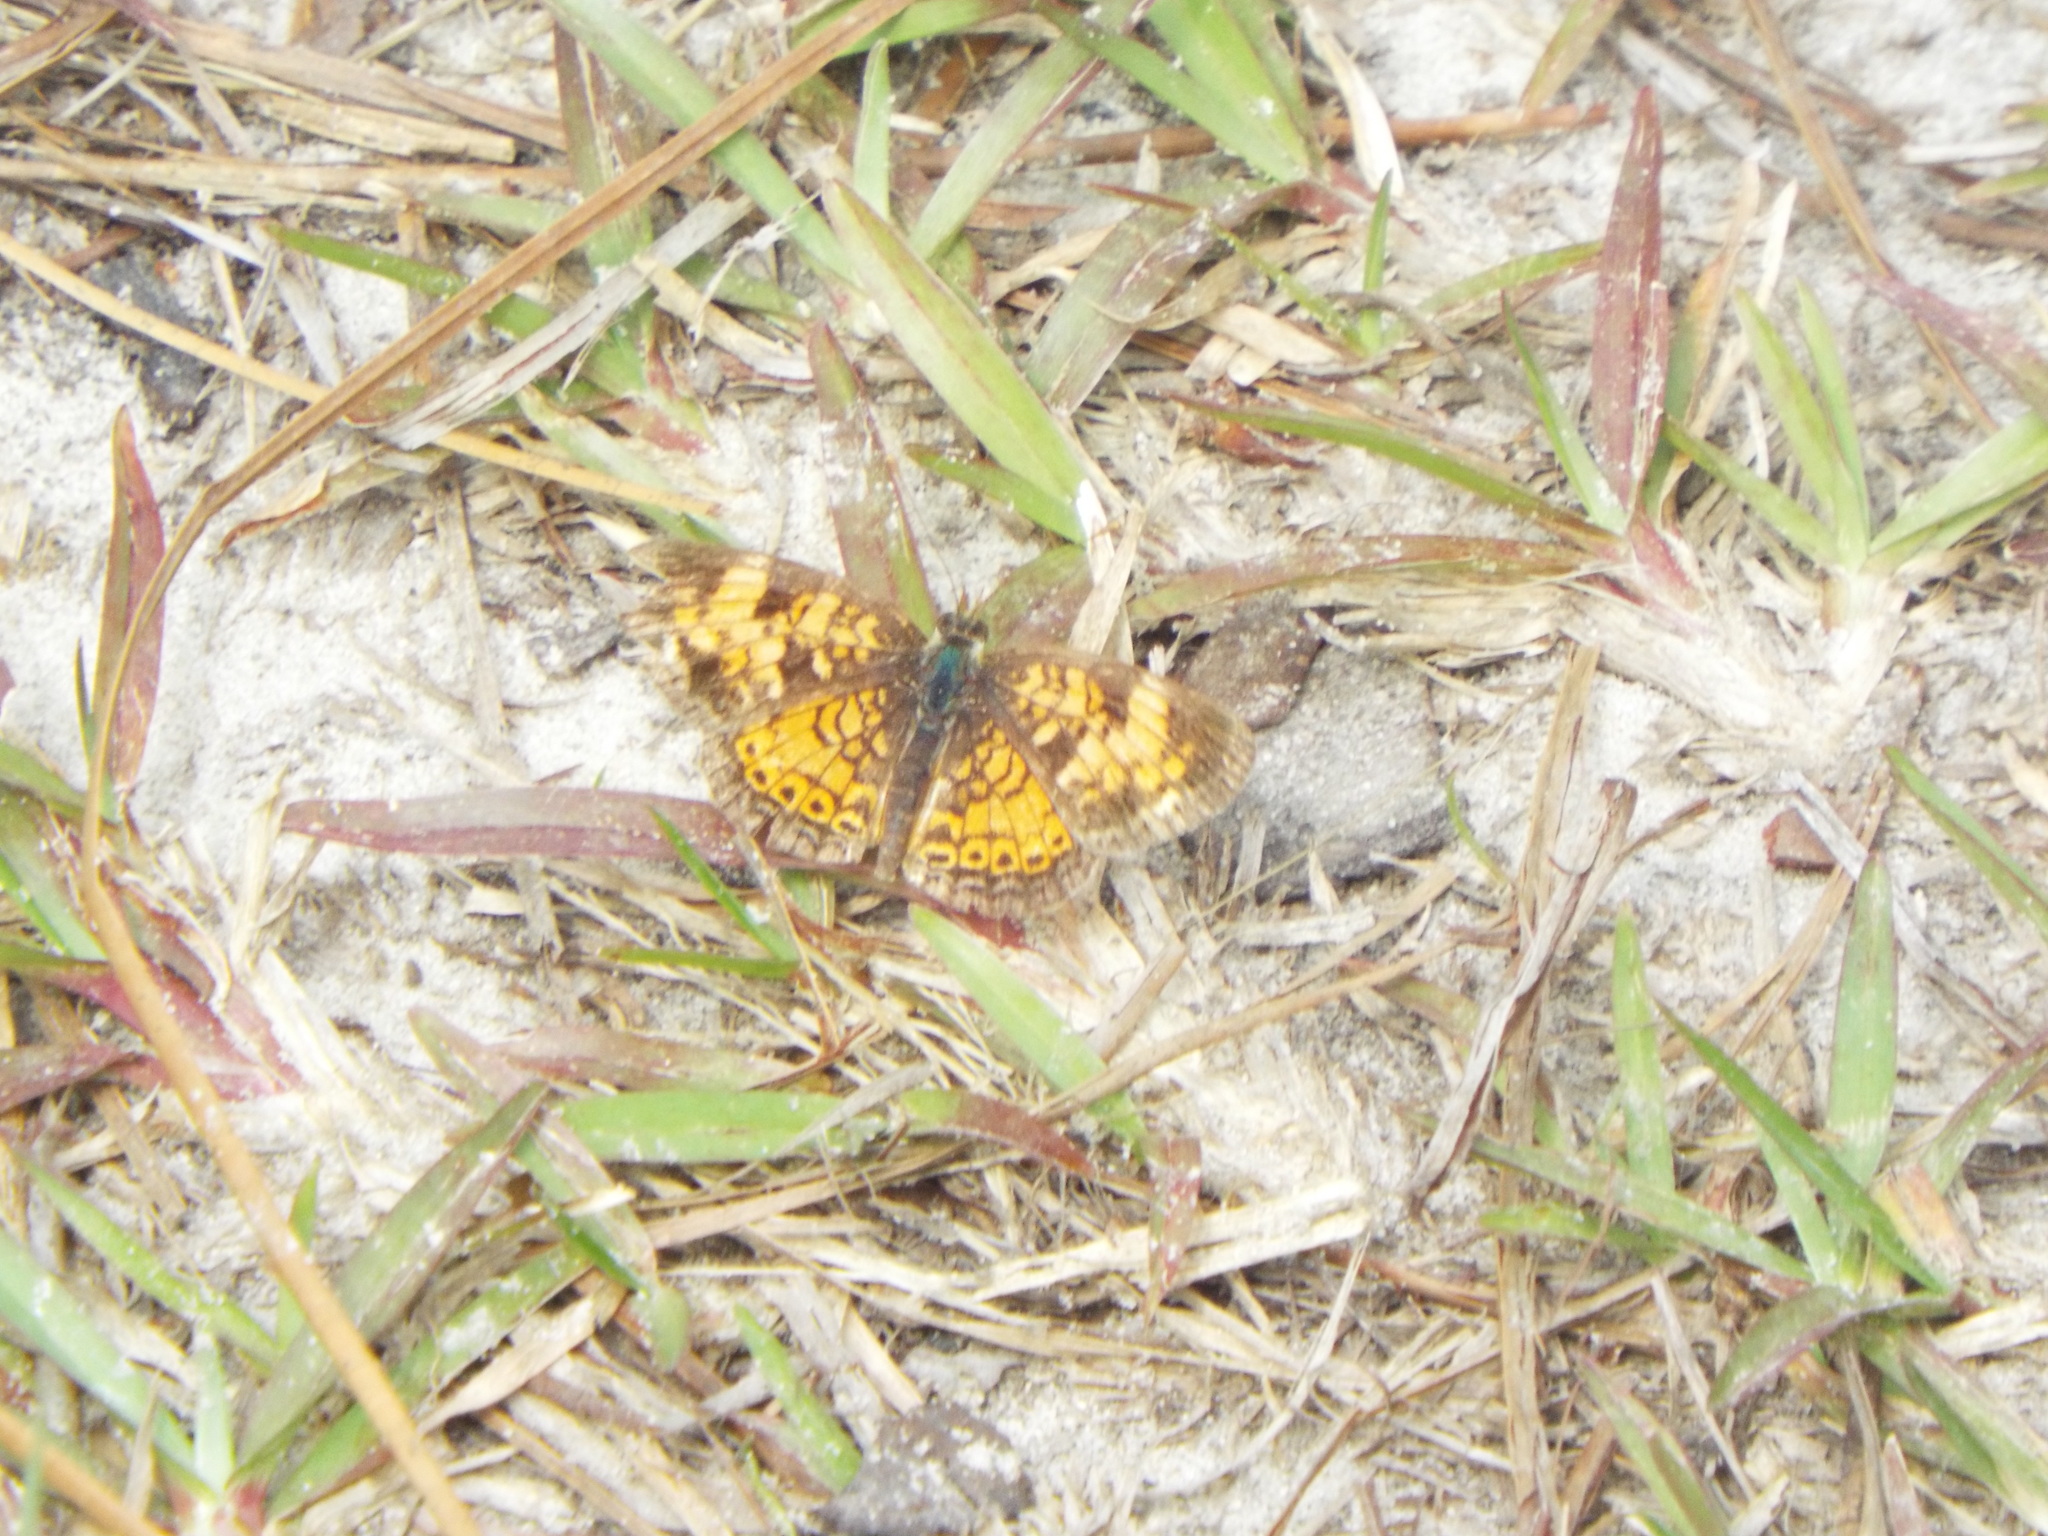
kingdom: Animalia
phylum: Arthropoda
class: Insecta
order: Lepidoptera
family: Nymphalidae
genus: Phyciodes
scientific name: Phyciodes tharos
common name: Pearl crescent
